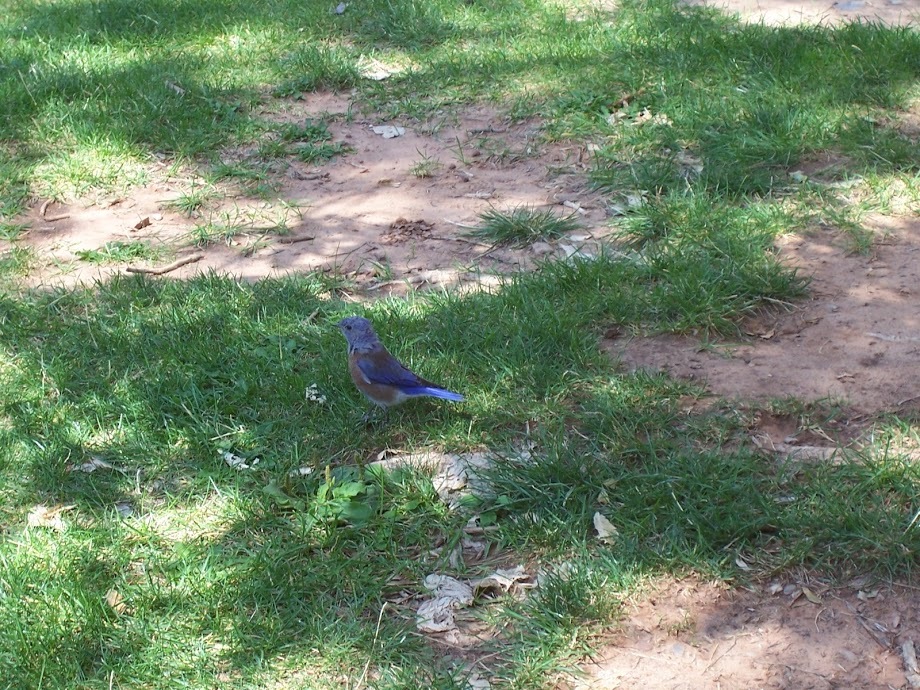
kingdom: Animalia
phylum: Chordata
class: Aves
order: Passeriformes
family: Turdidae
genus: Sialia
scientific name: Sialia mexicana
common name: Western bluebird
